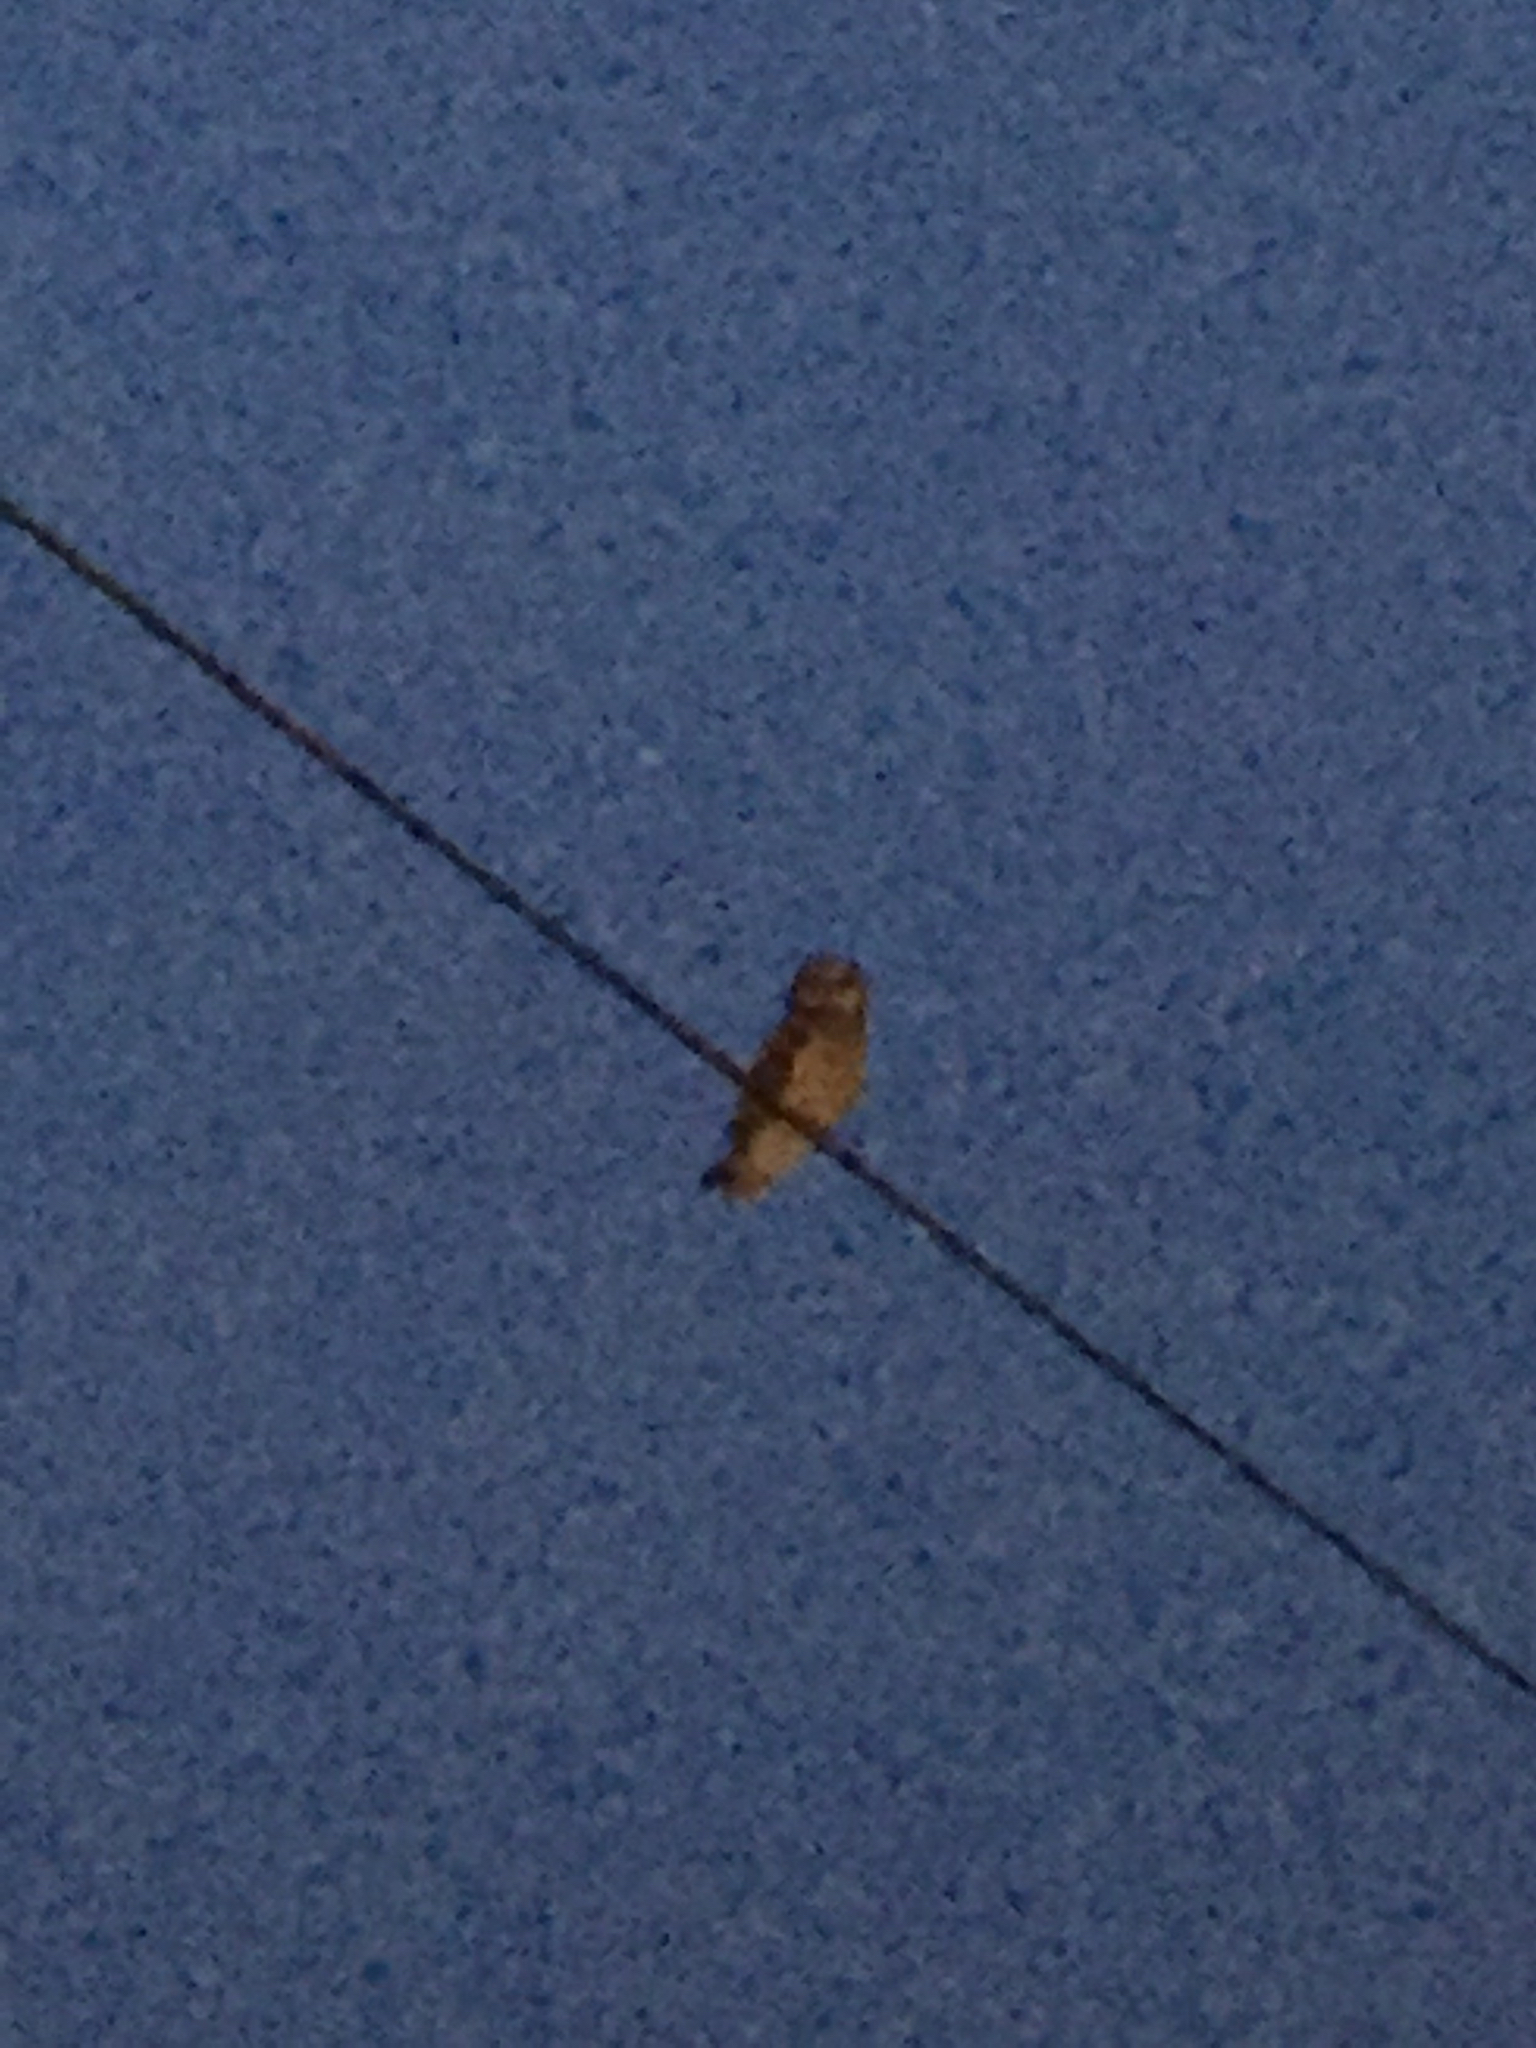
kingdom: Animalia
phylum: Chordata
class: Aves
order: Strigiformes
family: Strigidae
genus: Asio
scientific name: Asio flammeus
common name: Short-eared owl
